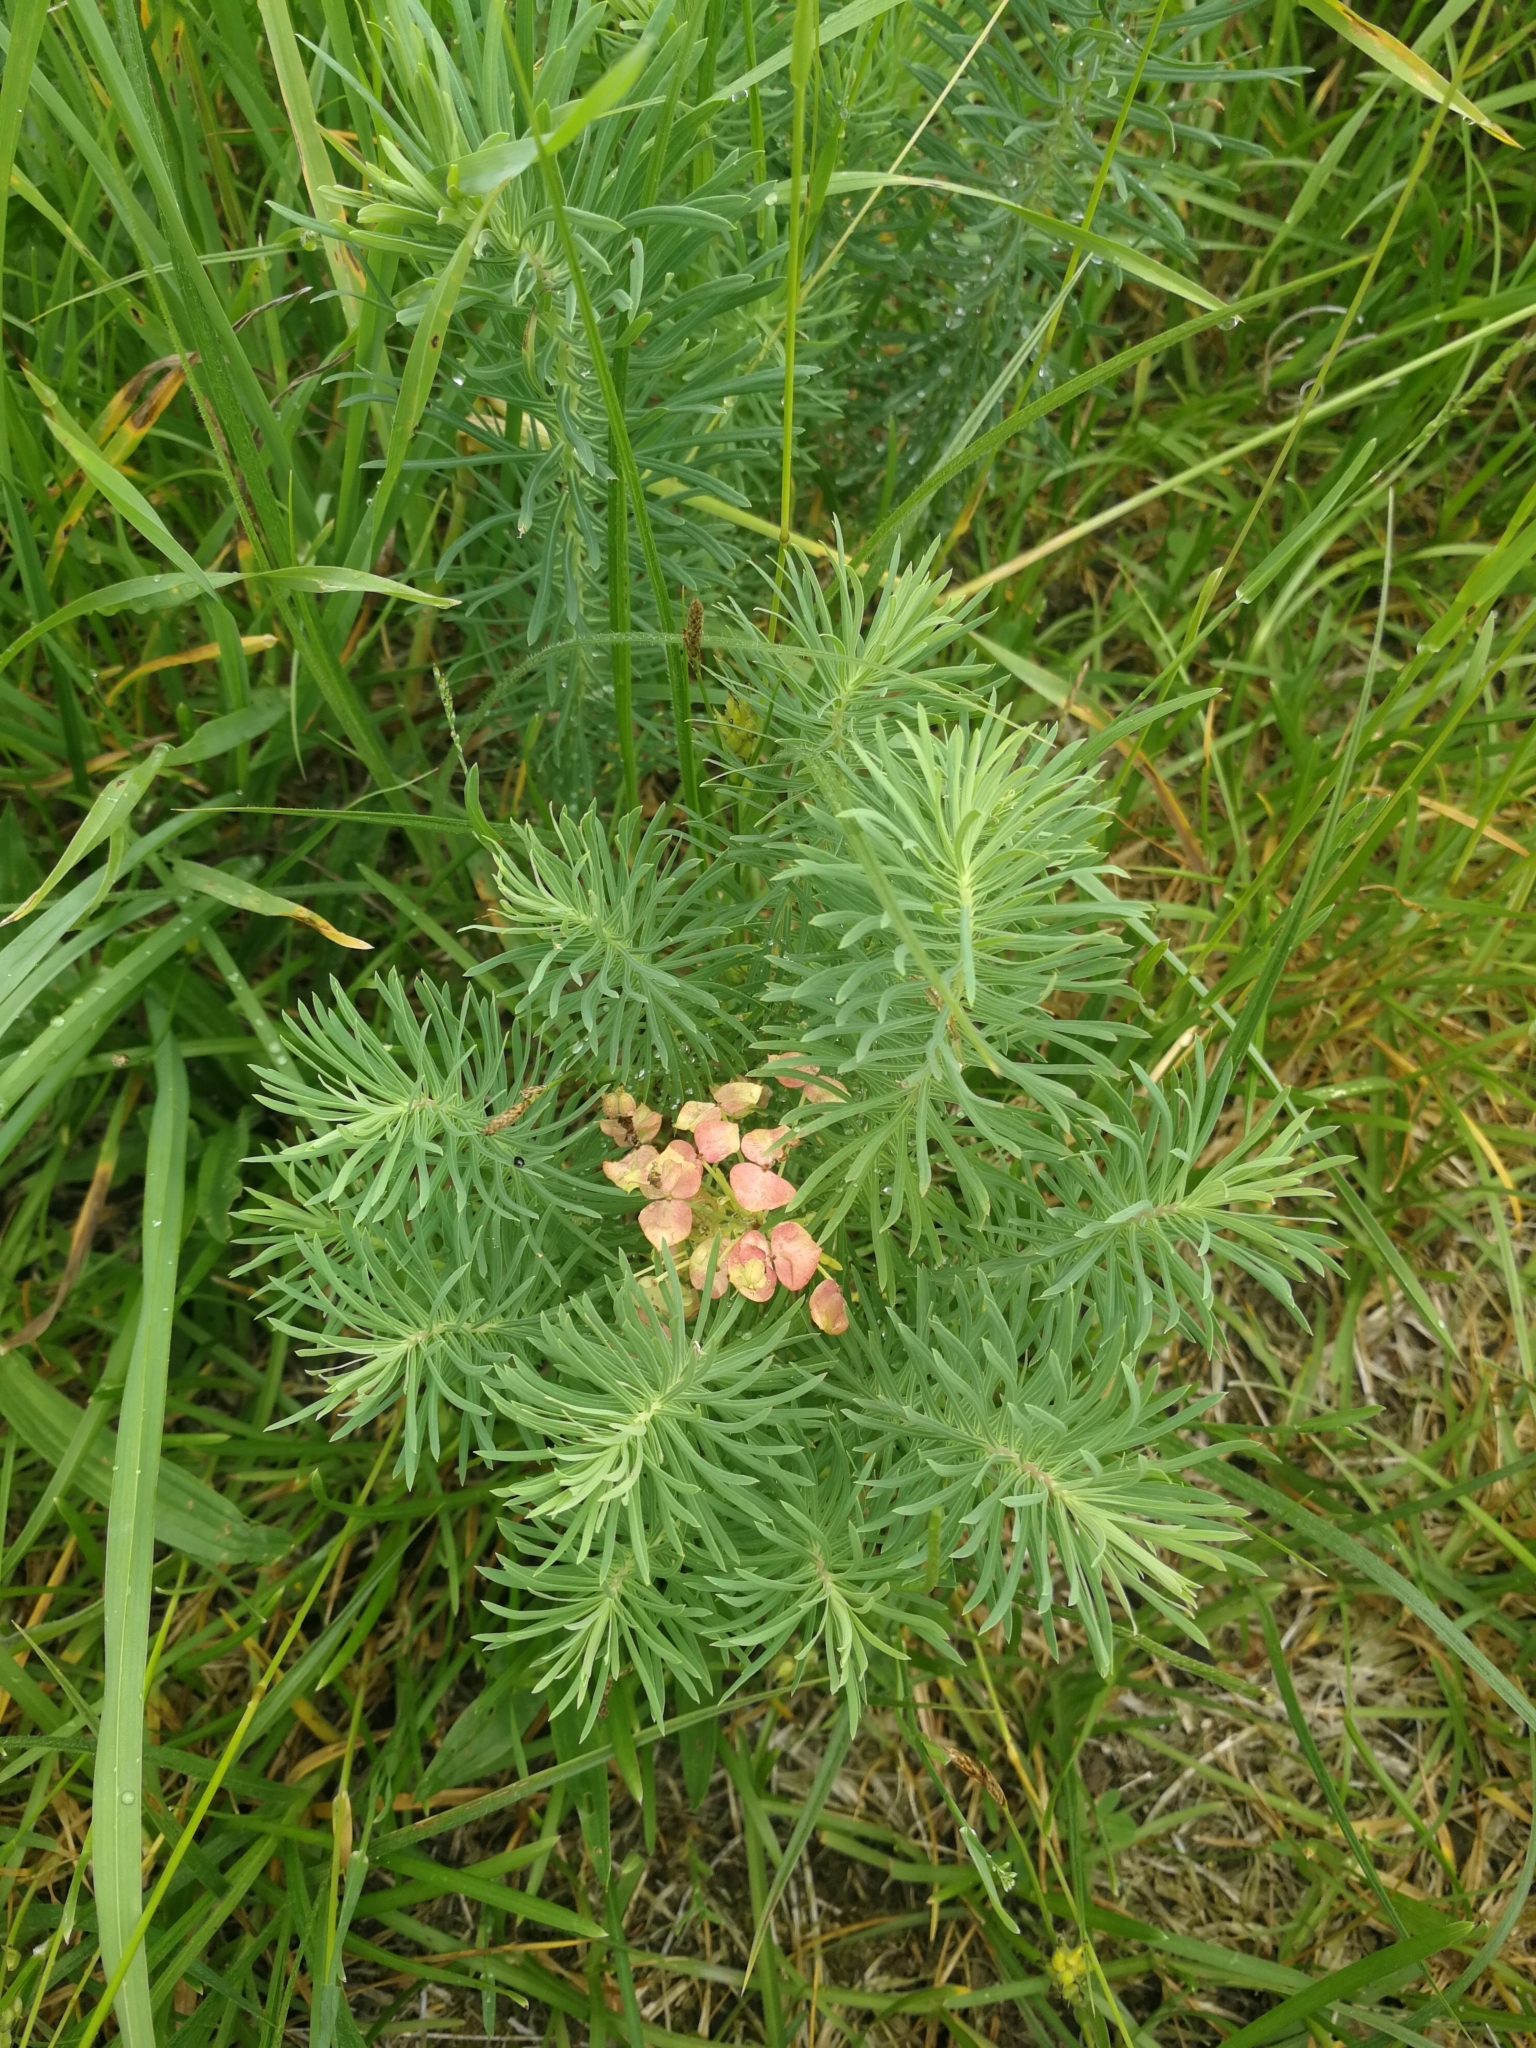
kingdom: Plantae
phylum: Tracheophyta
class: Magnoliopsida
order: Malpighiales
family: Euphorbiaceae
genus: Euphorbia
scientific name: Euphorbia cyparissias
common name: Cypress spurge
